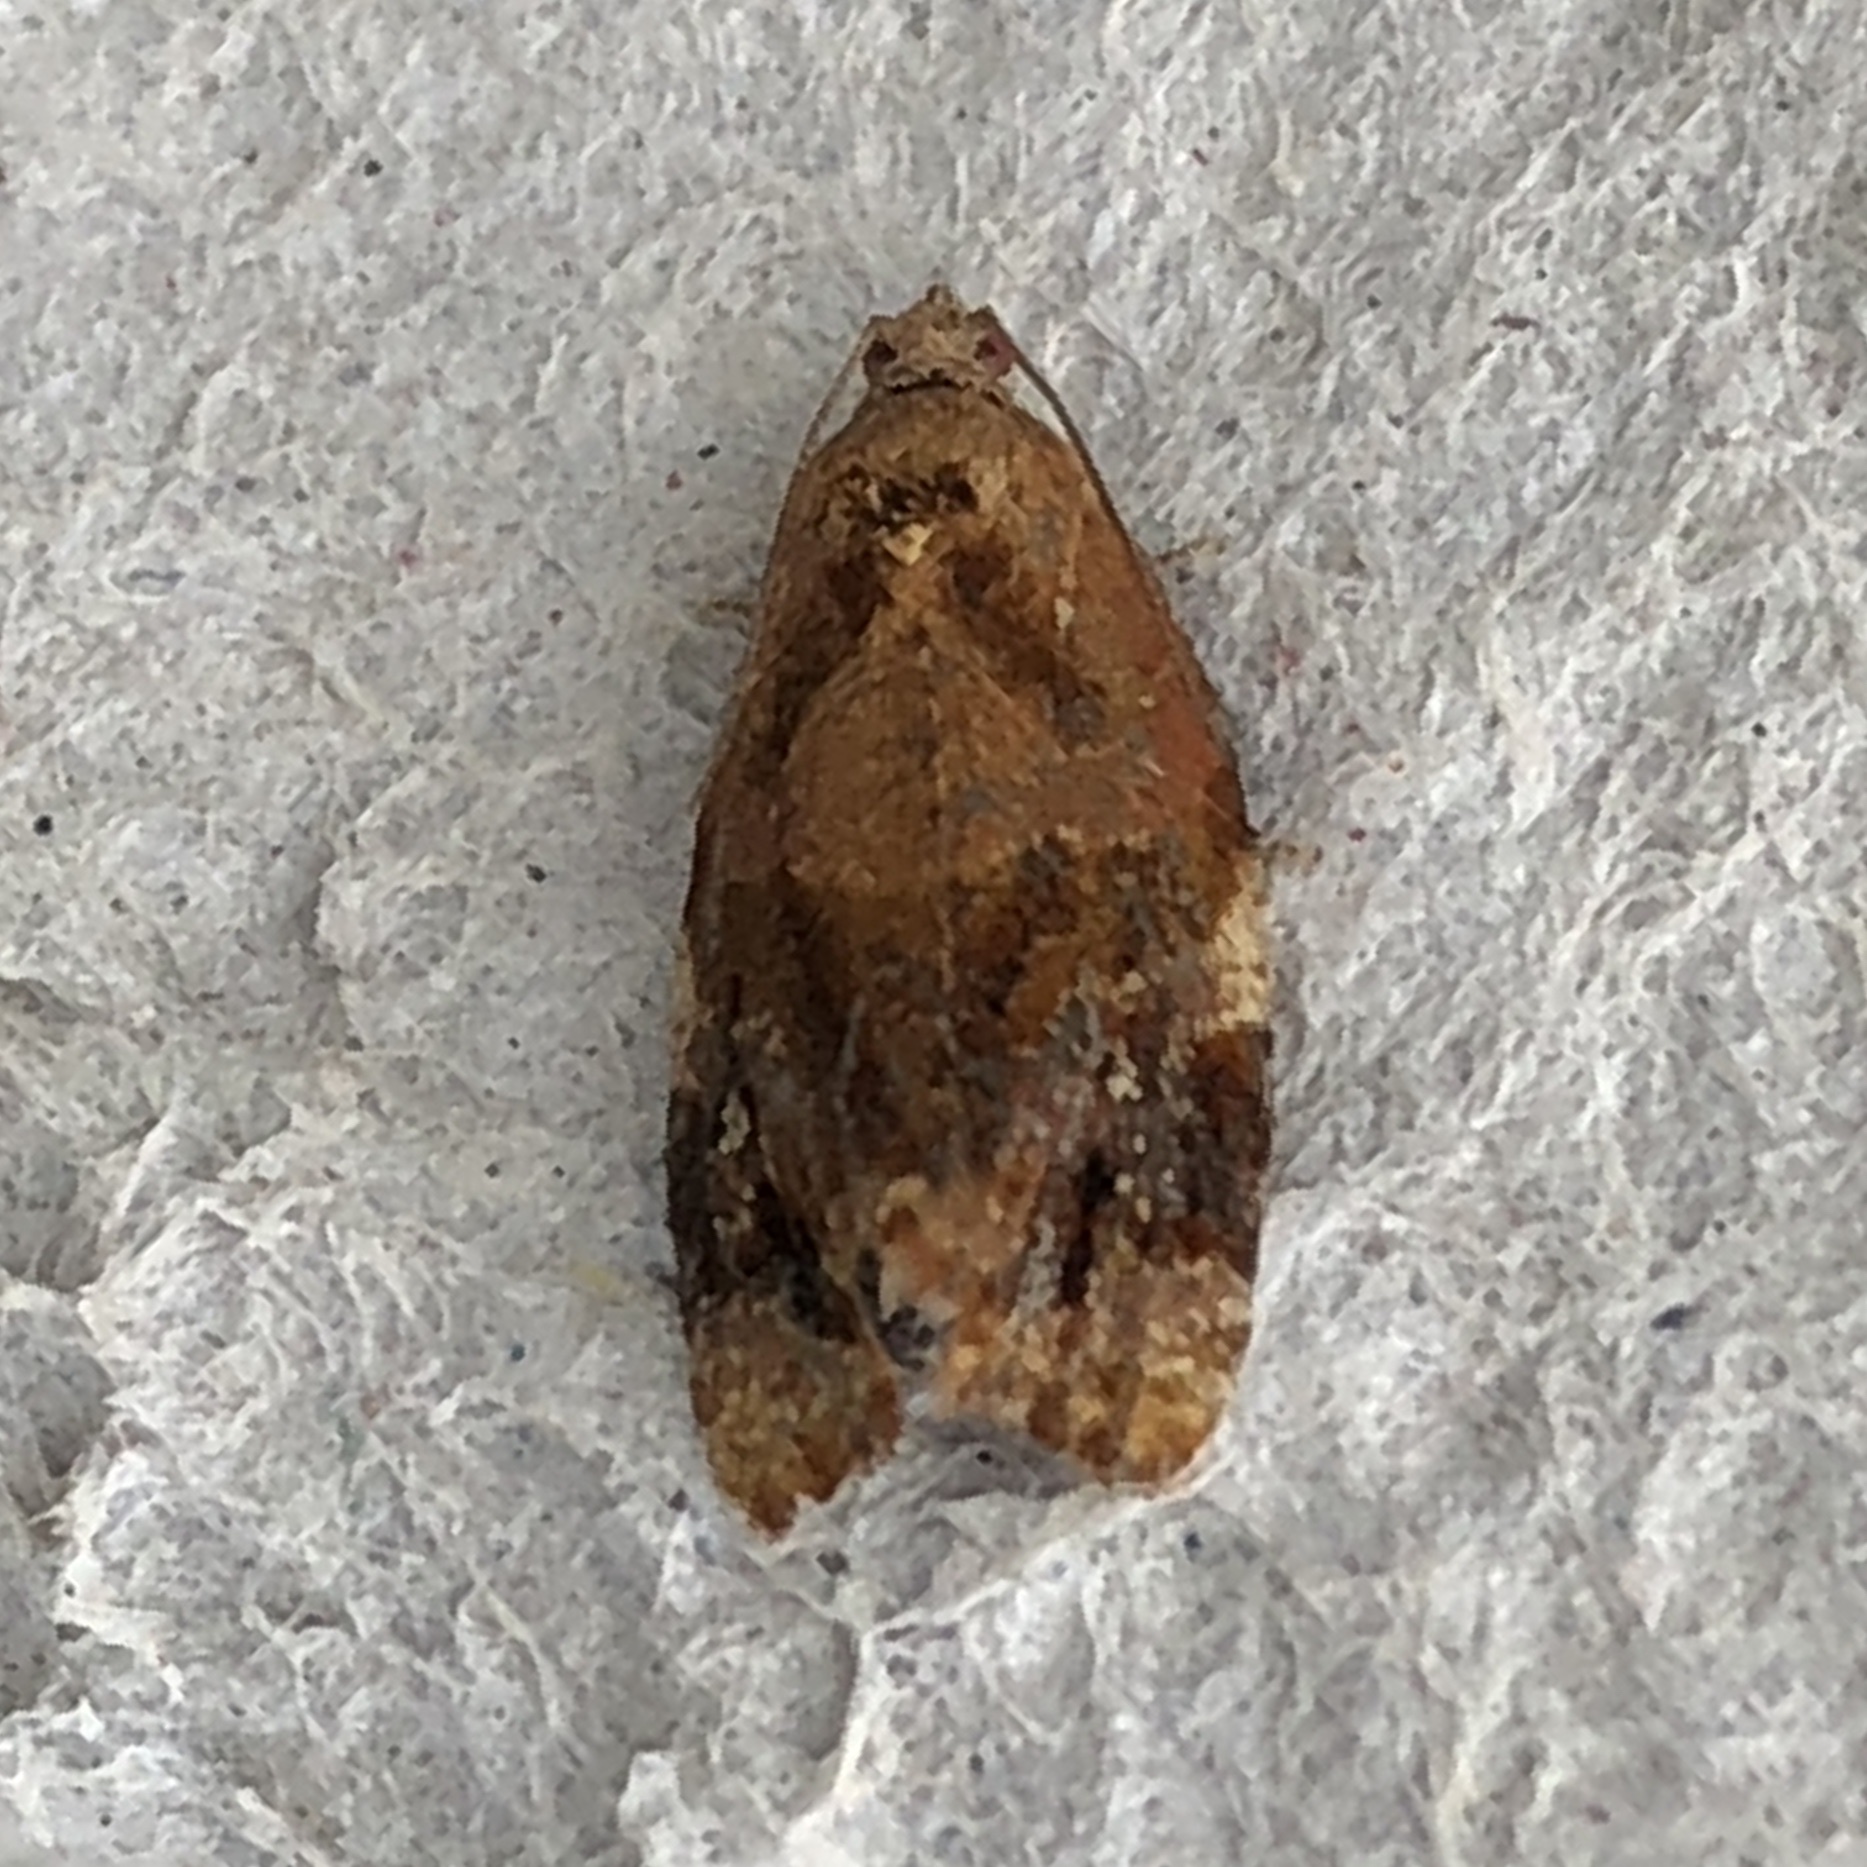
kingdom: Animalia
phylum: Arthropoda
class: Insecta
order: Lepidoptera
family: Tortricidae
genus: Ditula
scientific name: Ditula angustiorana
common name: Red-barred tortrix
